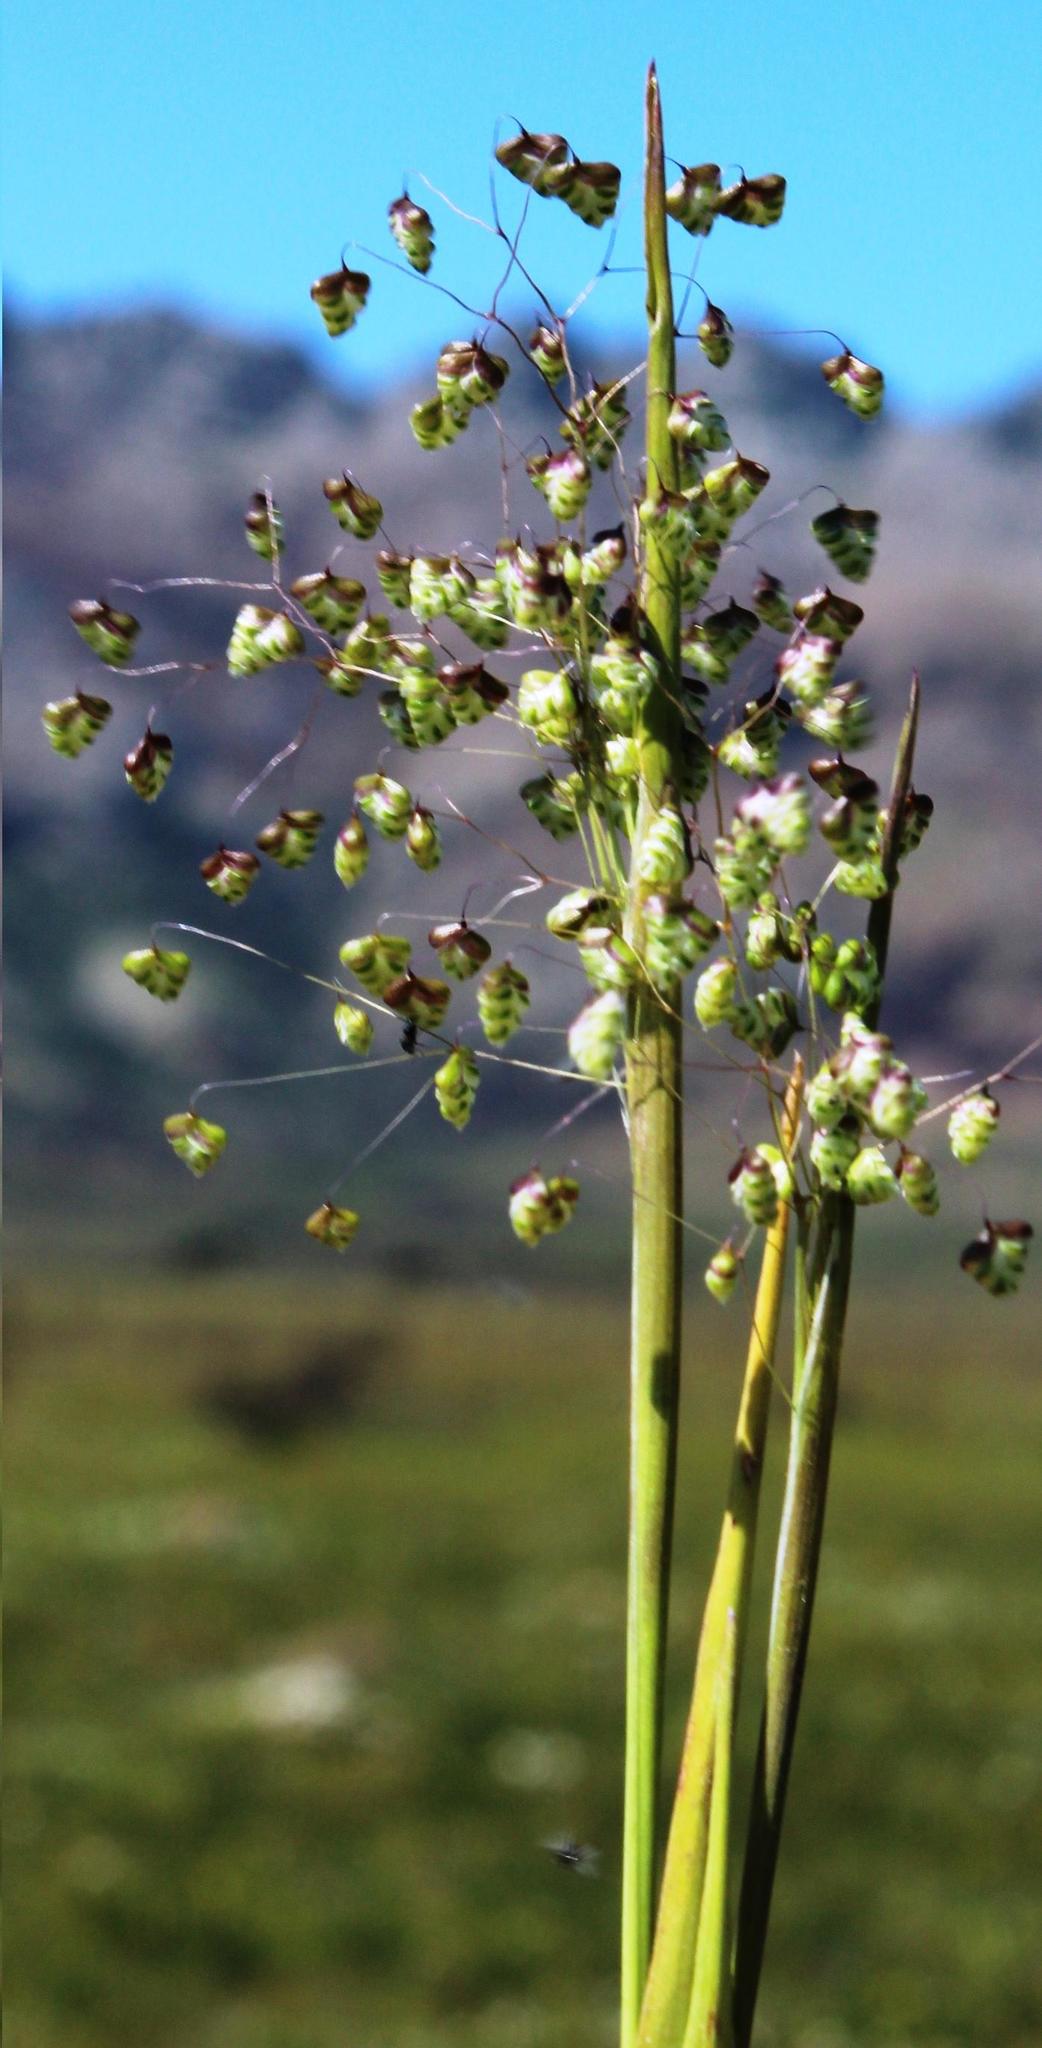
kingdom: Plantae
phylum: Tracheophyta
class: Liliopsida
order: Poales
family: Poaceae
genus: Briza
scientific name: Briza minor
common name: Lesser quaking-grass
